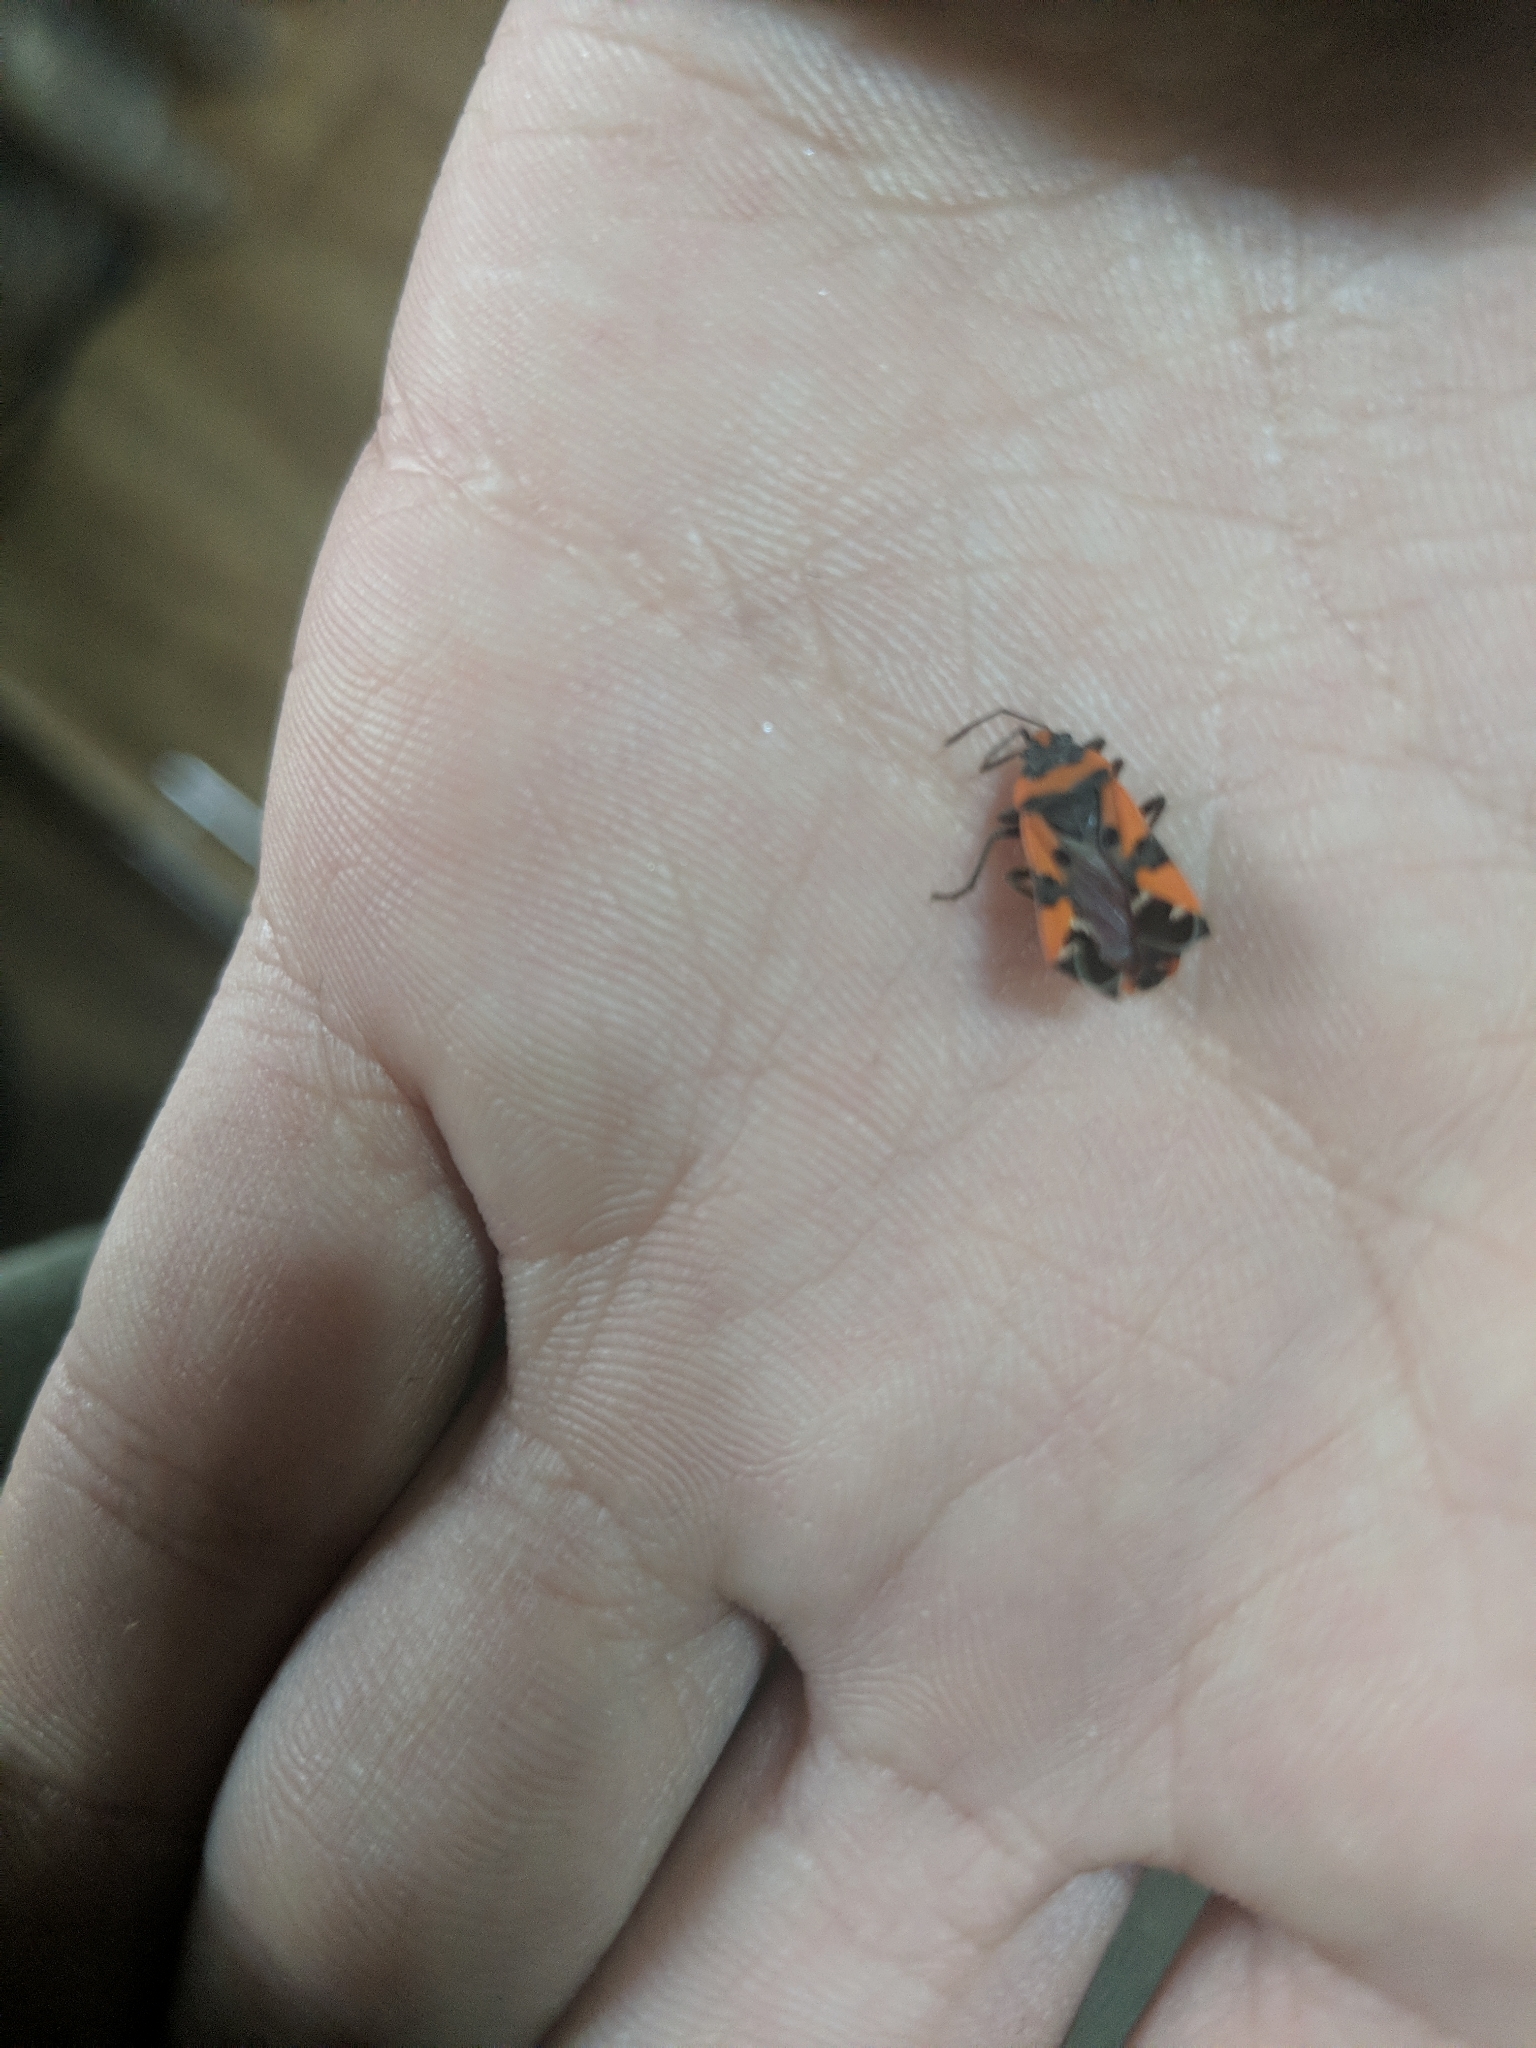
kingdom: Animalia
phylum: Arthropoda
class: Insecta
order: Hemiptera
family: Lygaeidae
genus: Lygaeus
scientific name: Lygaeus equestris
